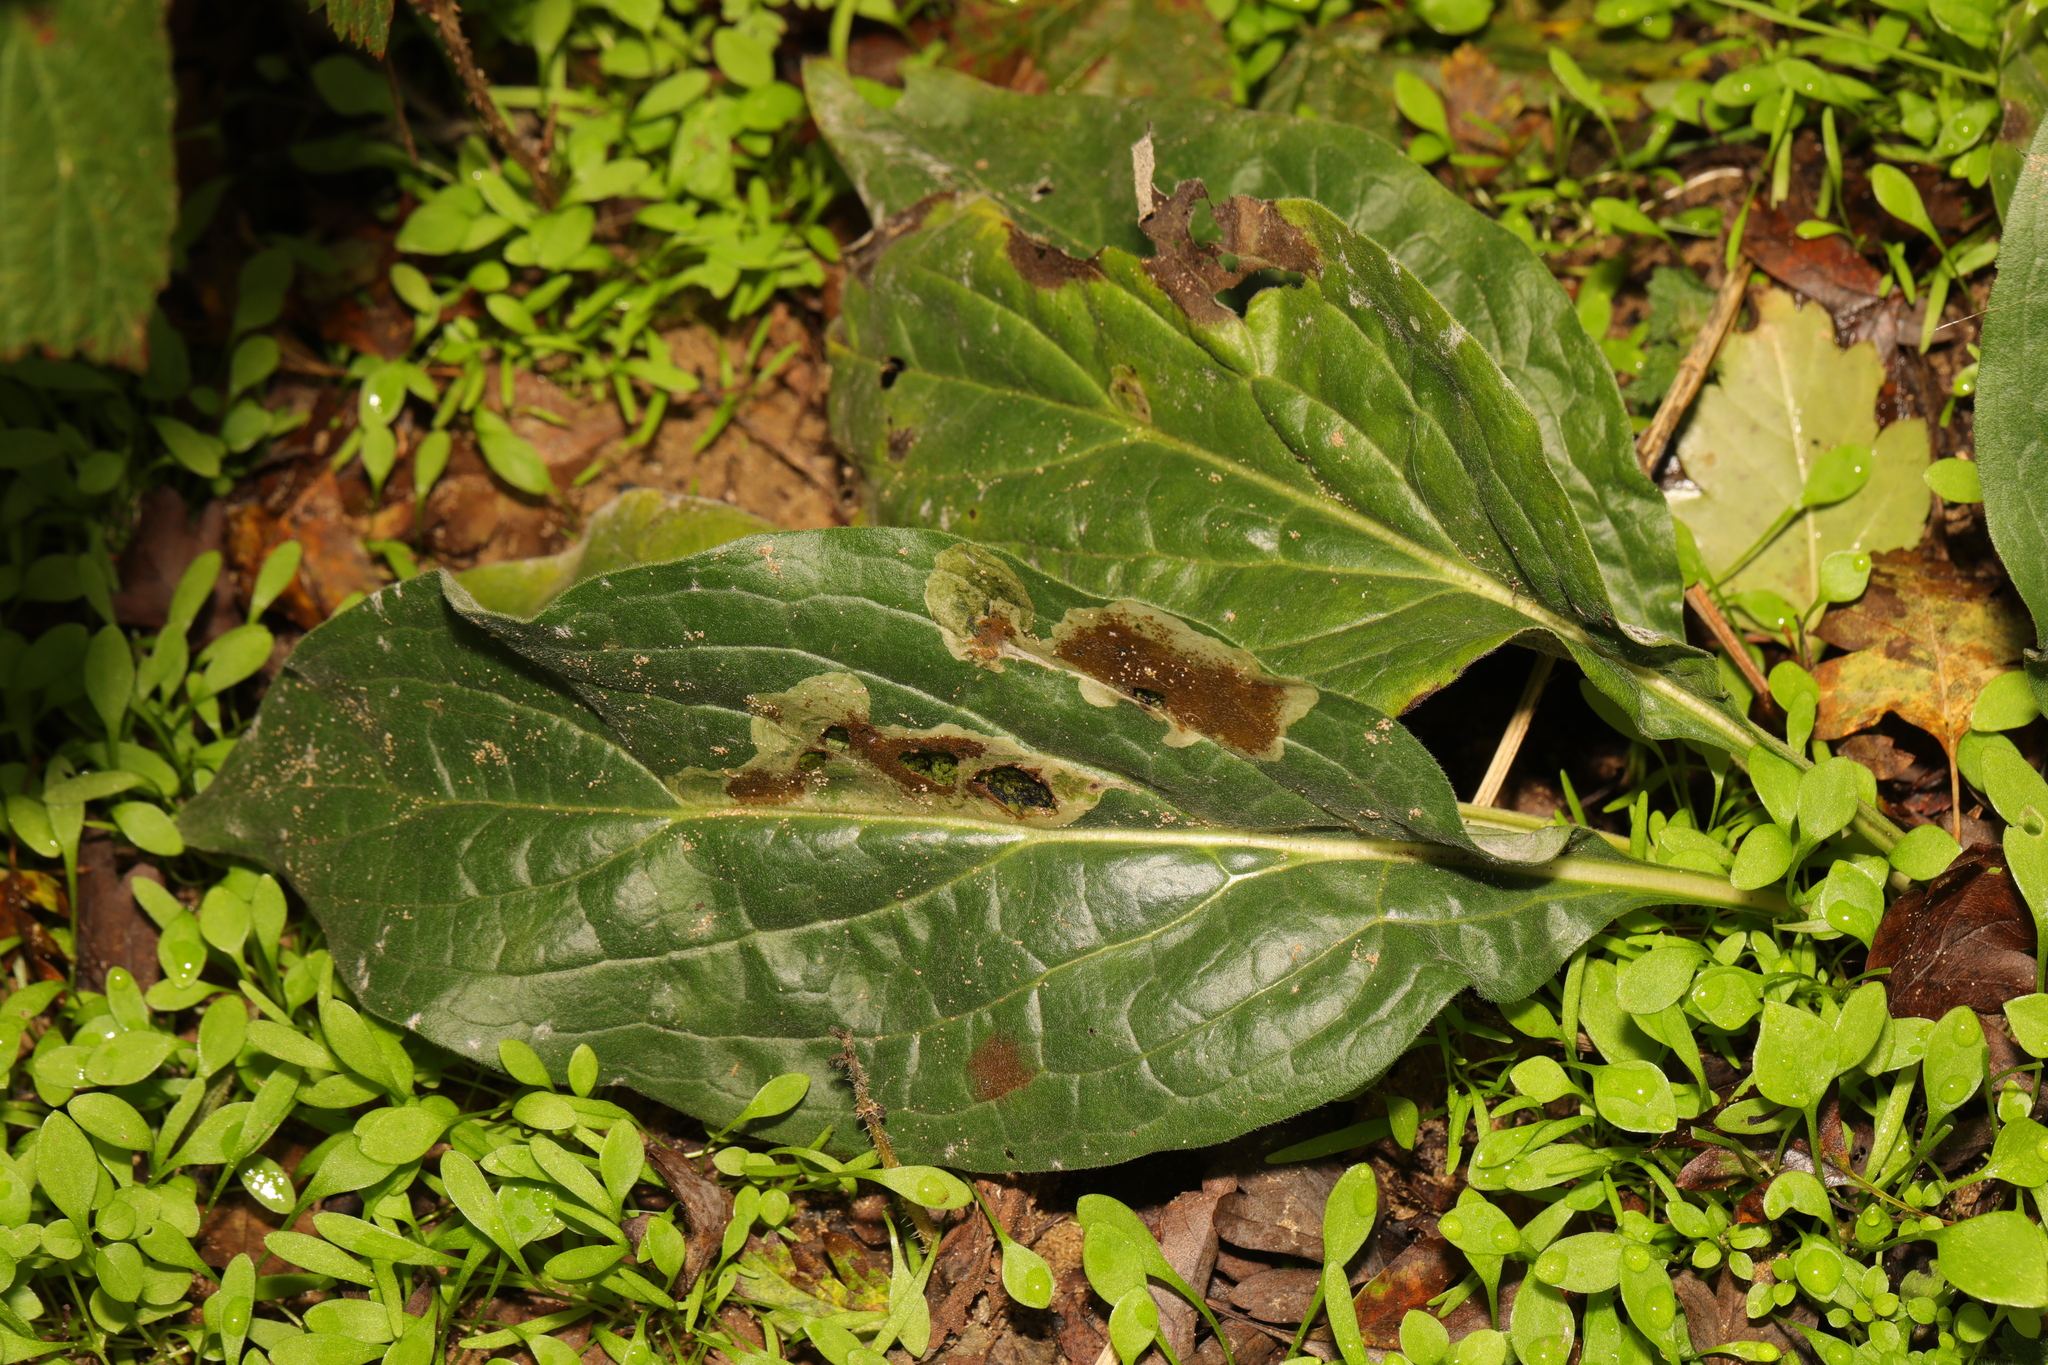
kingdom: Plantae
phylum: Tracheophyta
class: Magnoliopsida
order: Boraginales
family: Boraginaceae
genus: Cynoglossum
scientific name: Cynoglossum officinale
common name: Hound's-tongue
